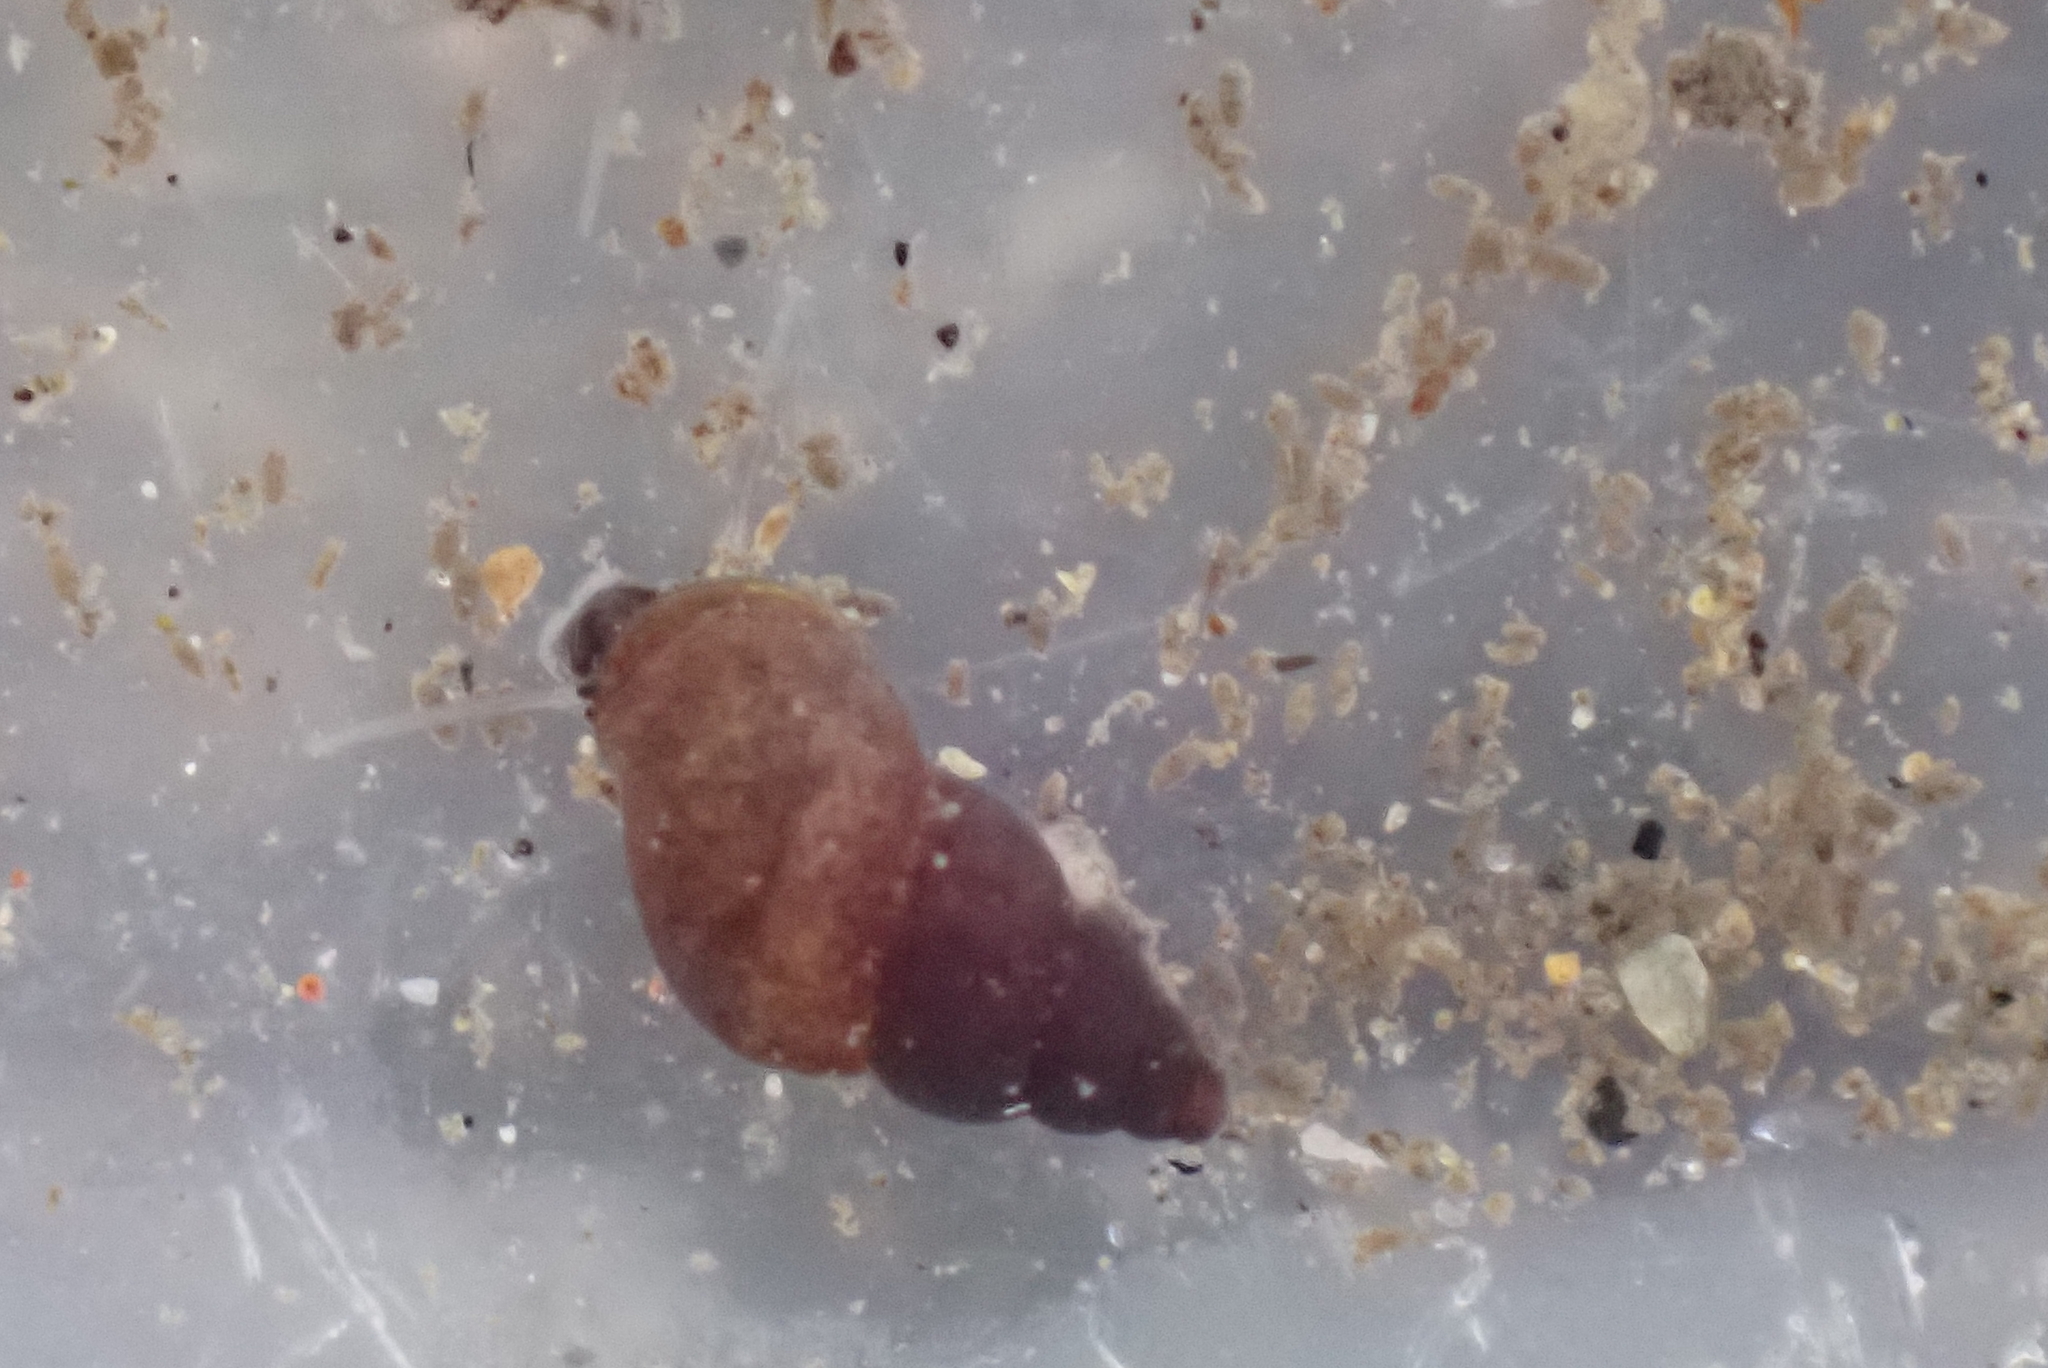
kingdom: Animalia
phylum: Mollusca
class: Gastropoda
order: Littorinimorpha
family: Tateidae
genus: Potamopyrgus
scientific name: Potamopyrgus antipodarum
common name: Jenkins' spire snail
